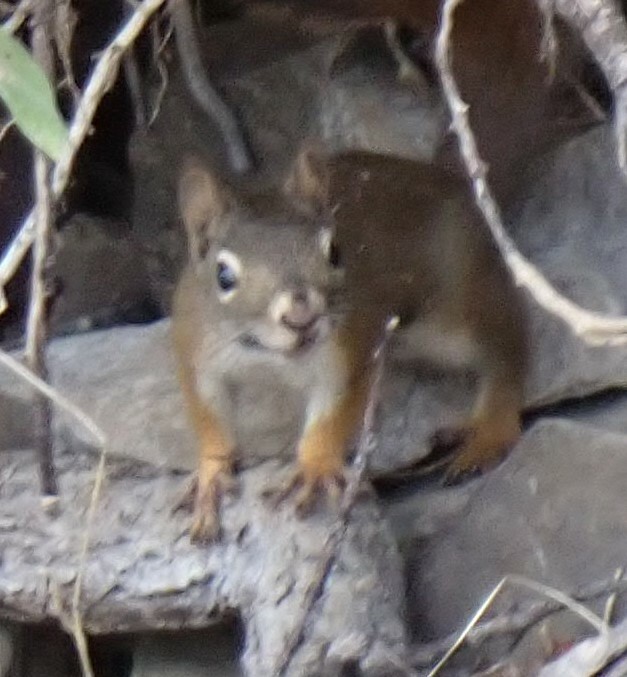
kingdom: Animalia
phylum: Chordata
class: Mammalia
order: Rodentia
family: Sciuridae
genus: Tamiasciurus
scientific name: Tamiasciurus hudsonicus
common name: Red squirrel
